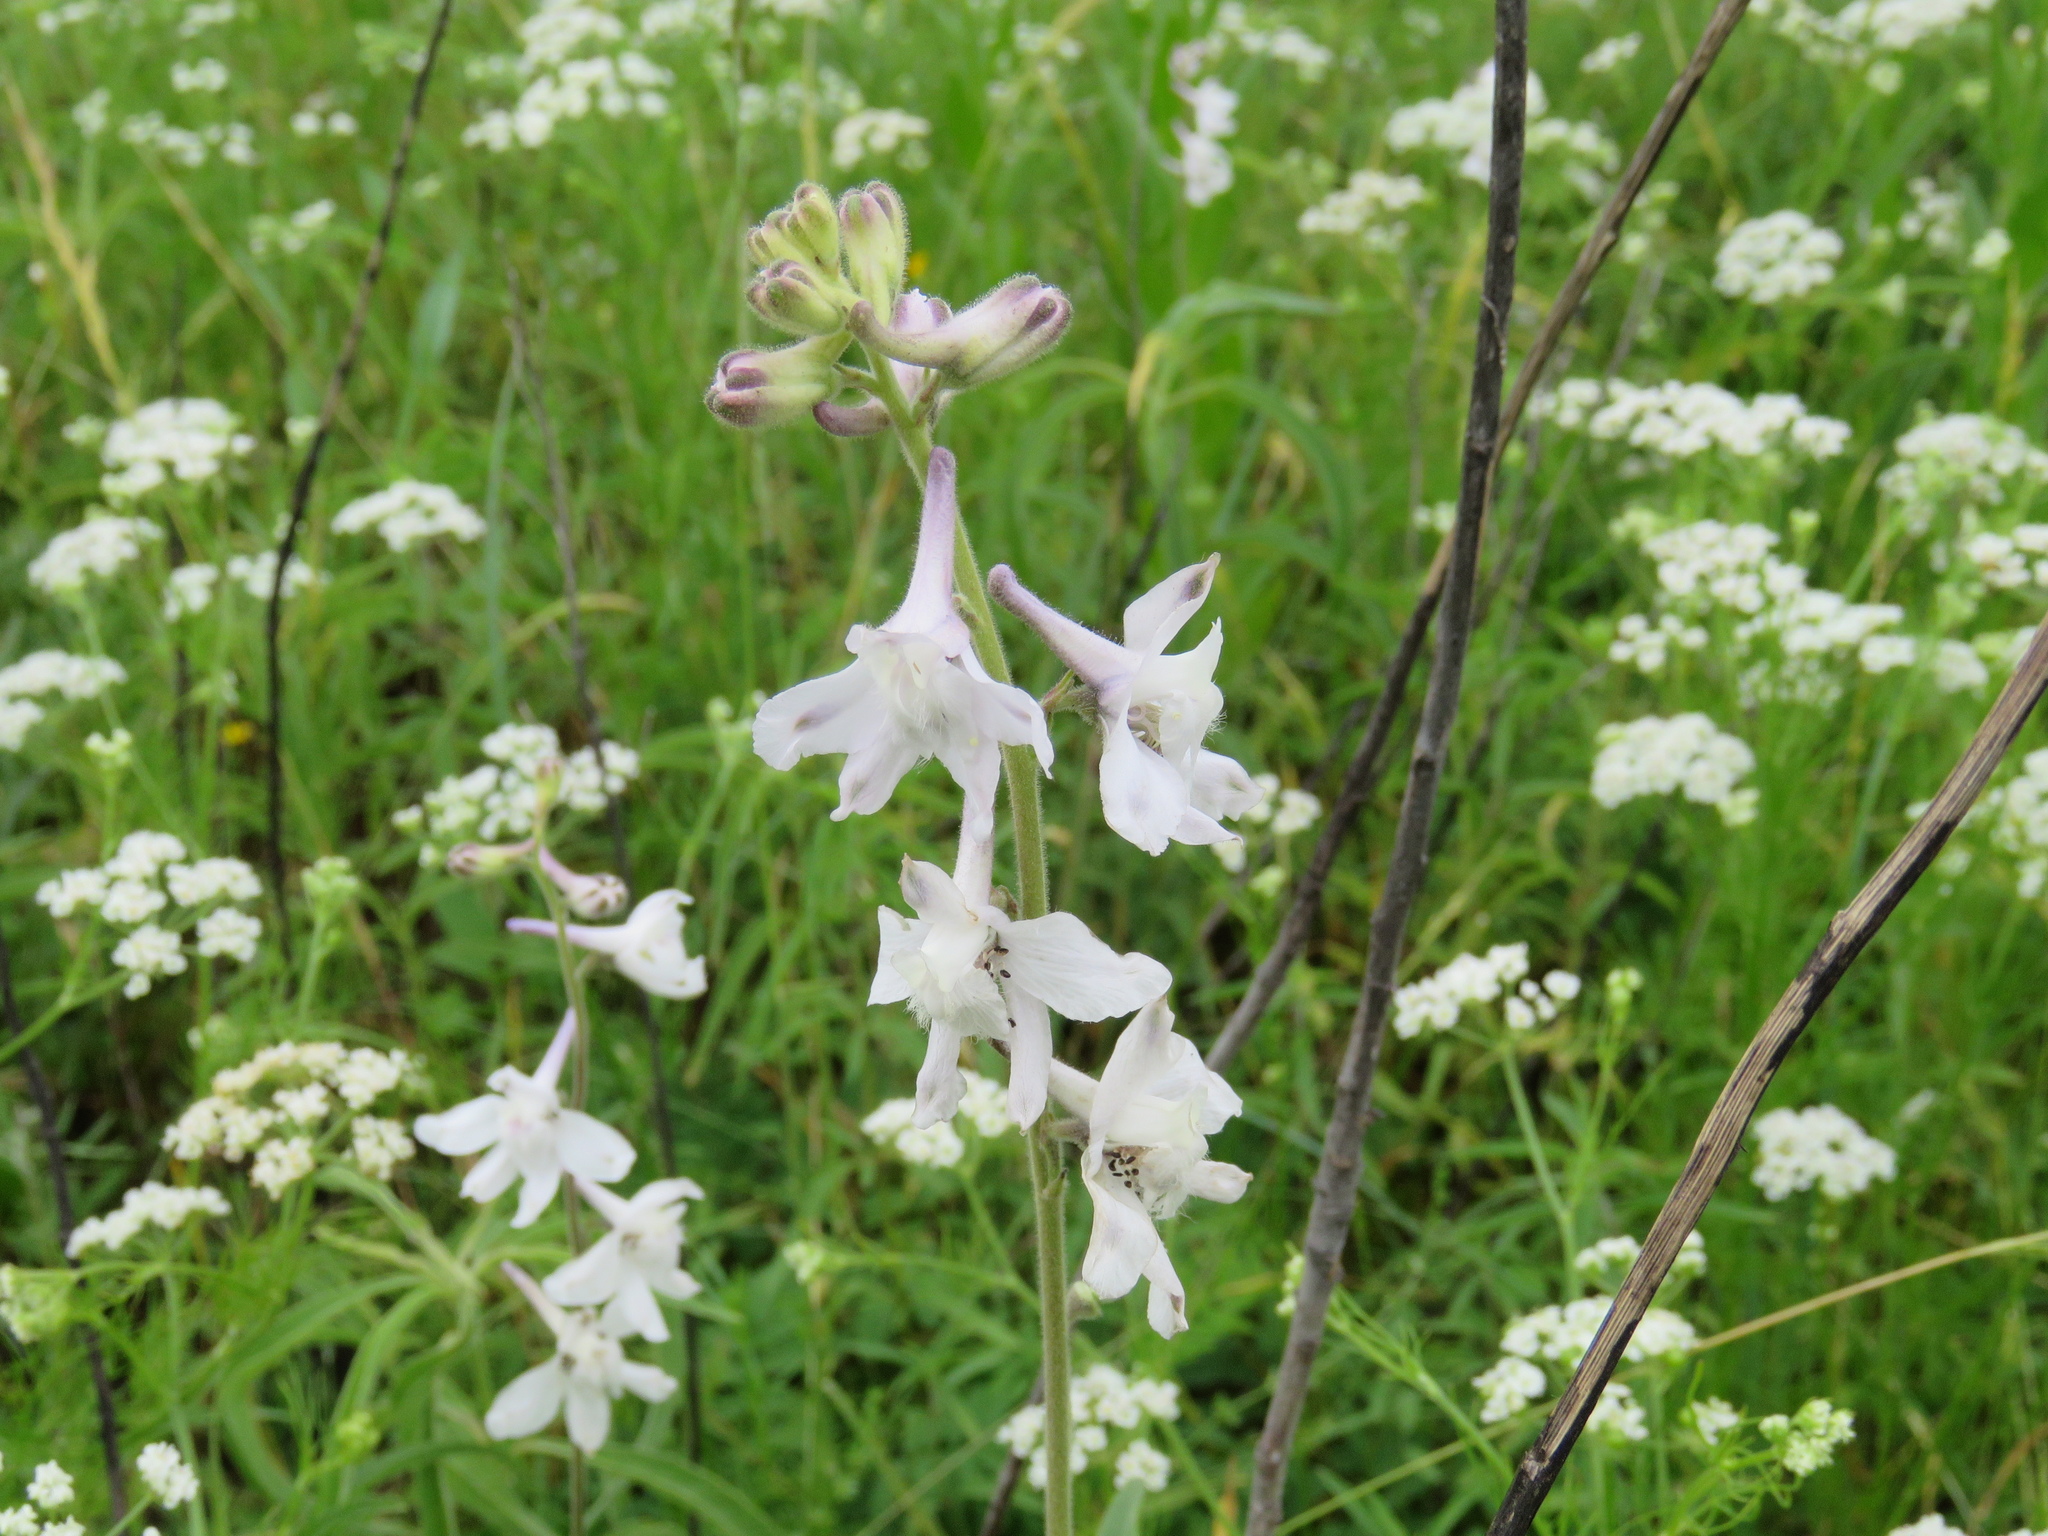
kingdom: Plantae
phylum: Tracheophyta
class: Magnoliopsida
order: Ranunculales
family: Ranunculaceae
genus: Delphinium
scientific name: Delphinium carolinianum
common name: Carolina larkspur
